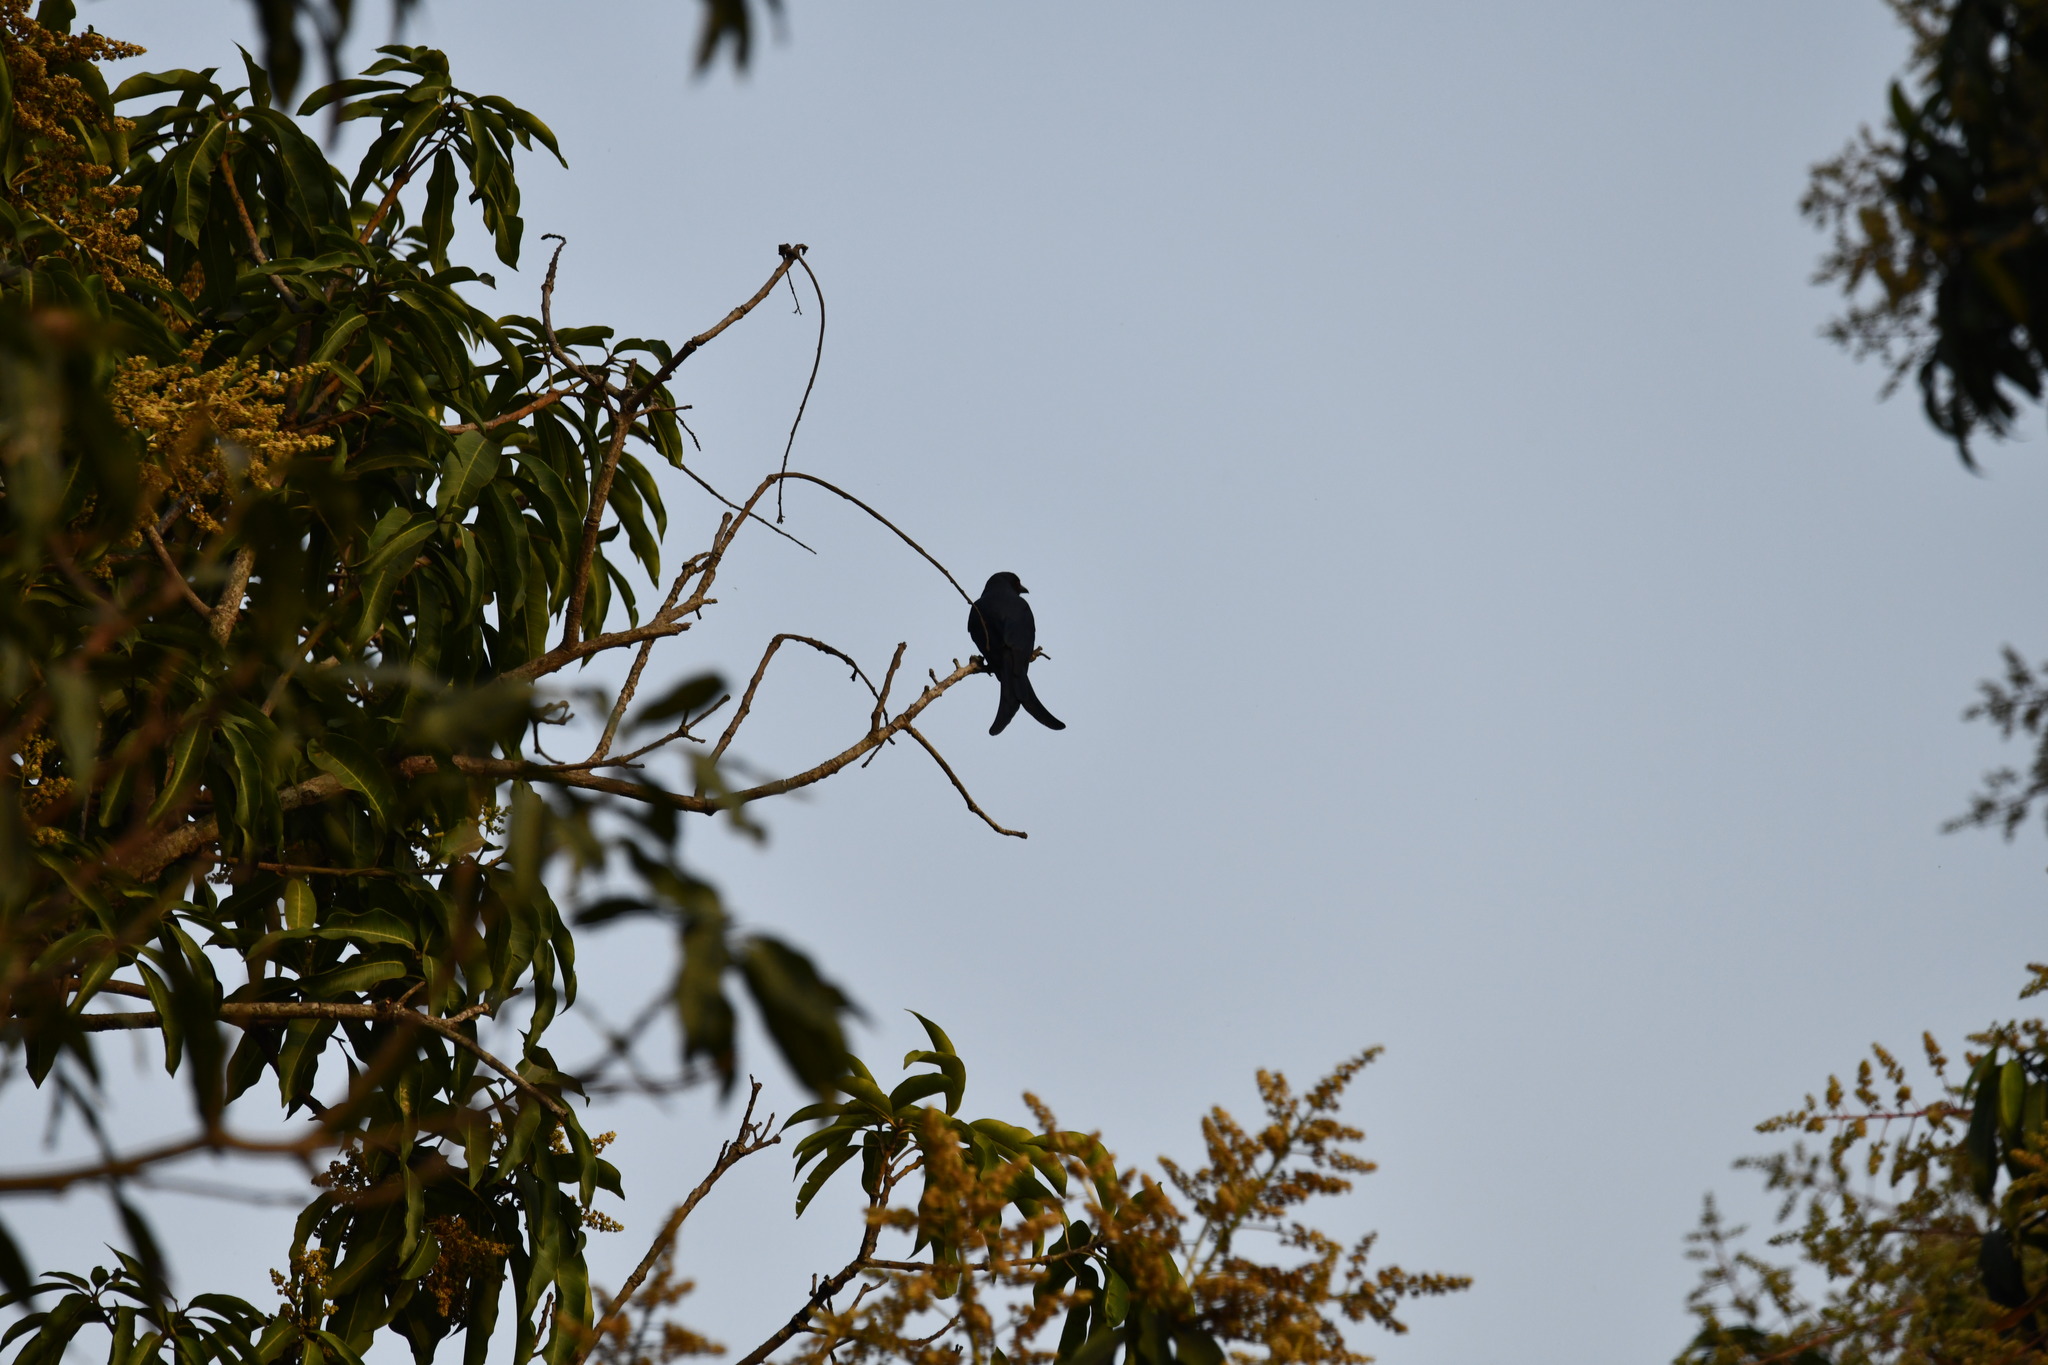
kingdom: Animalia
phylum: Chordata
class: Aves
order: Passeriformes
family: Dicruridae
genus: Dicrurus
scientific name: Dicrurus macrocercus
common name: Black drongo
